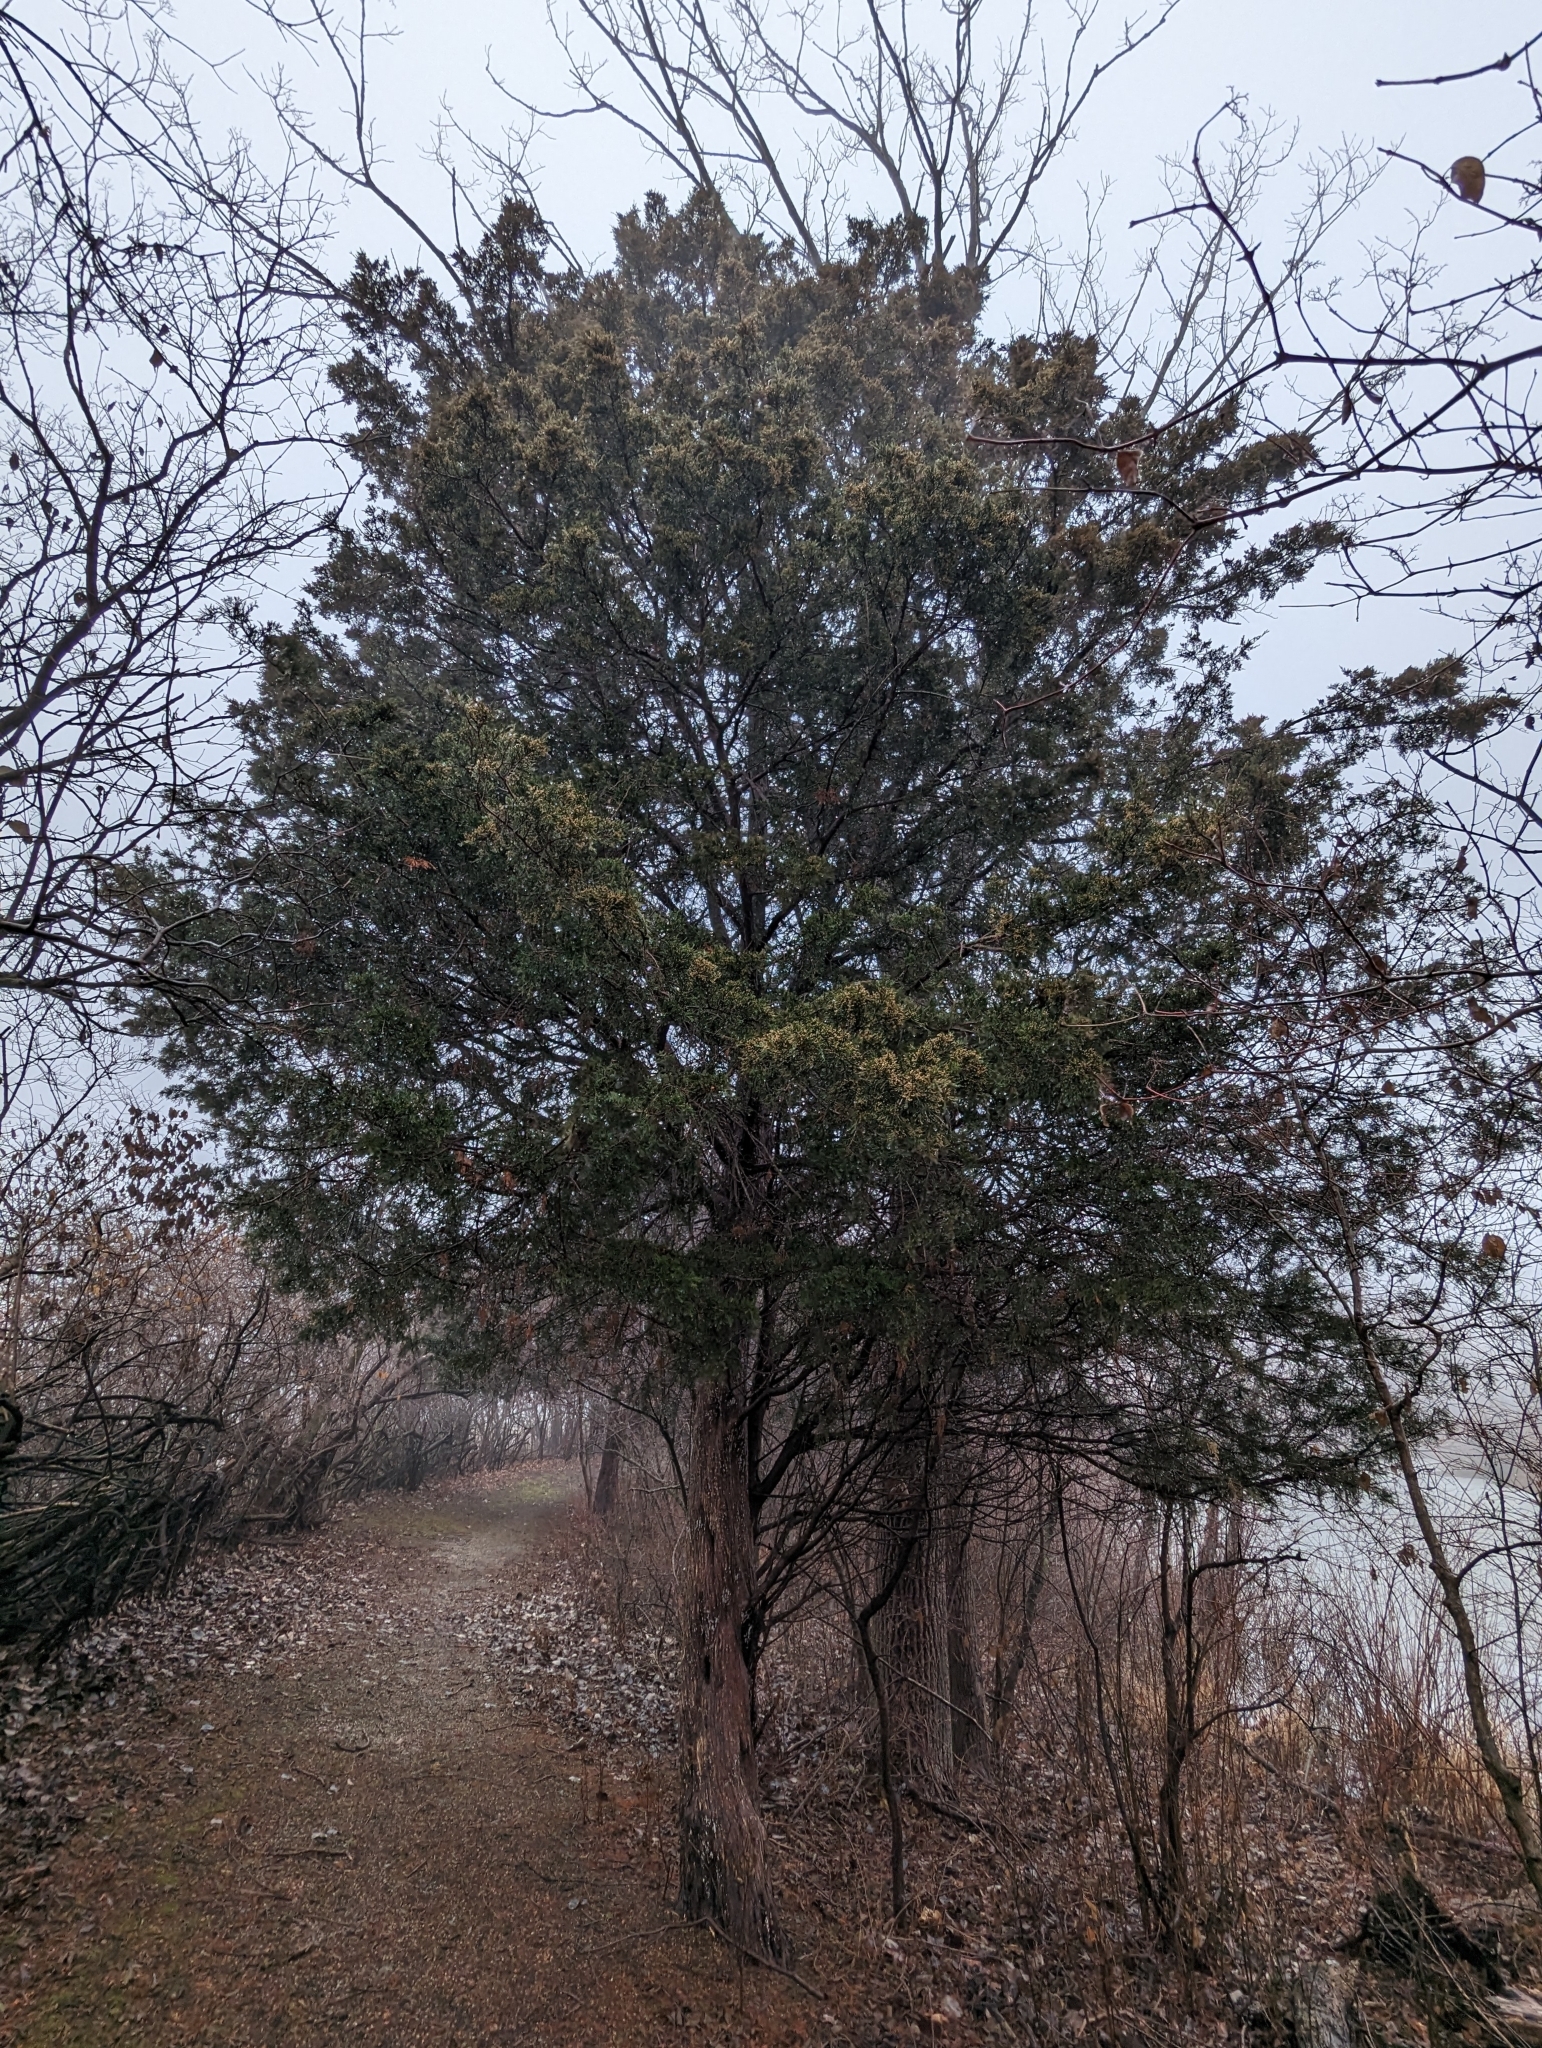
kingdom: Plantae
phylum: Tracheophyta
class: Pinopsida
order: Pinales
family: Cupressaceae
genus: Juniperus
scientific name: Juniperus virginiana
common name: Red juniper
